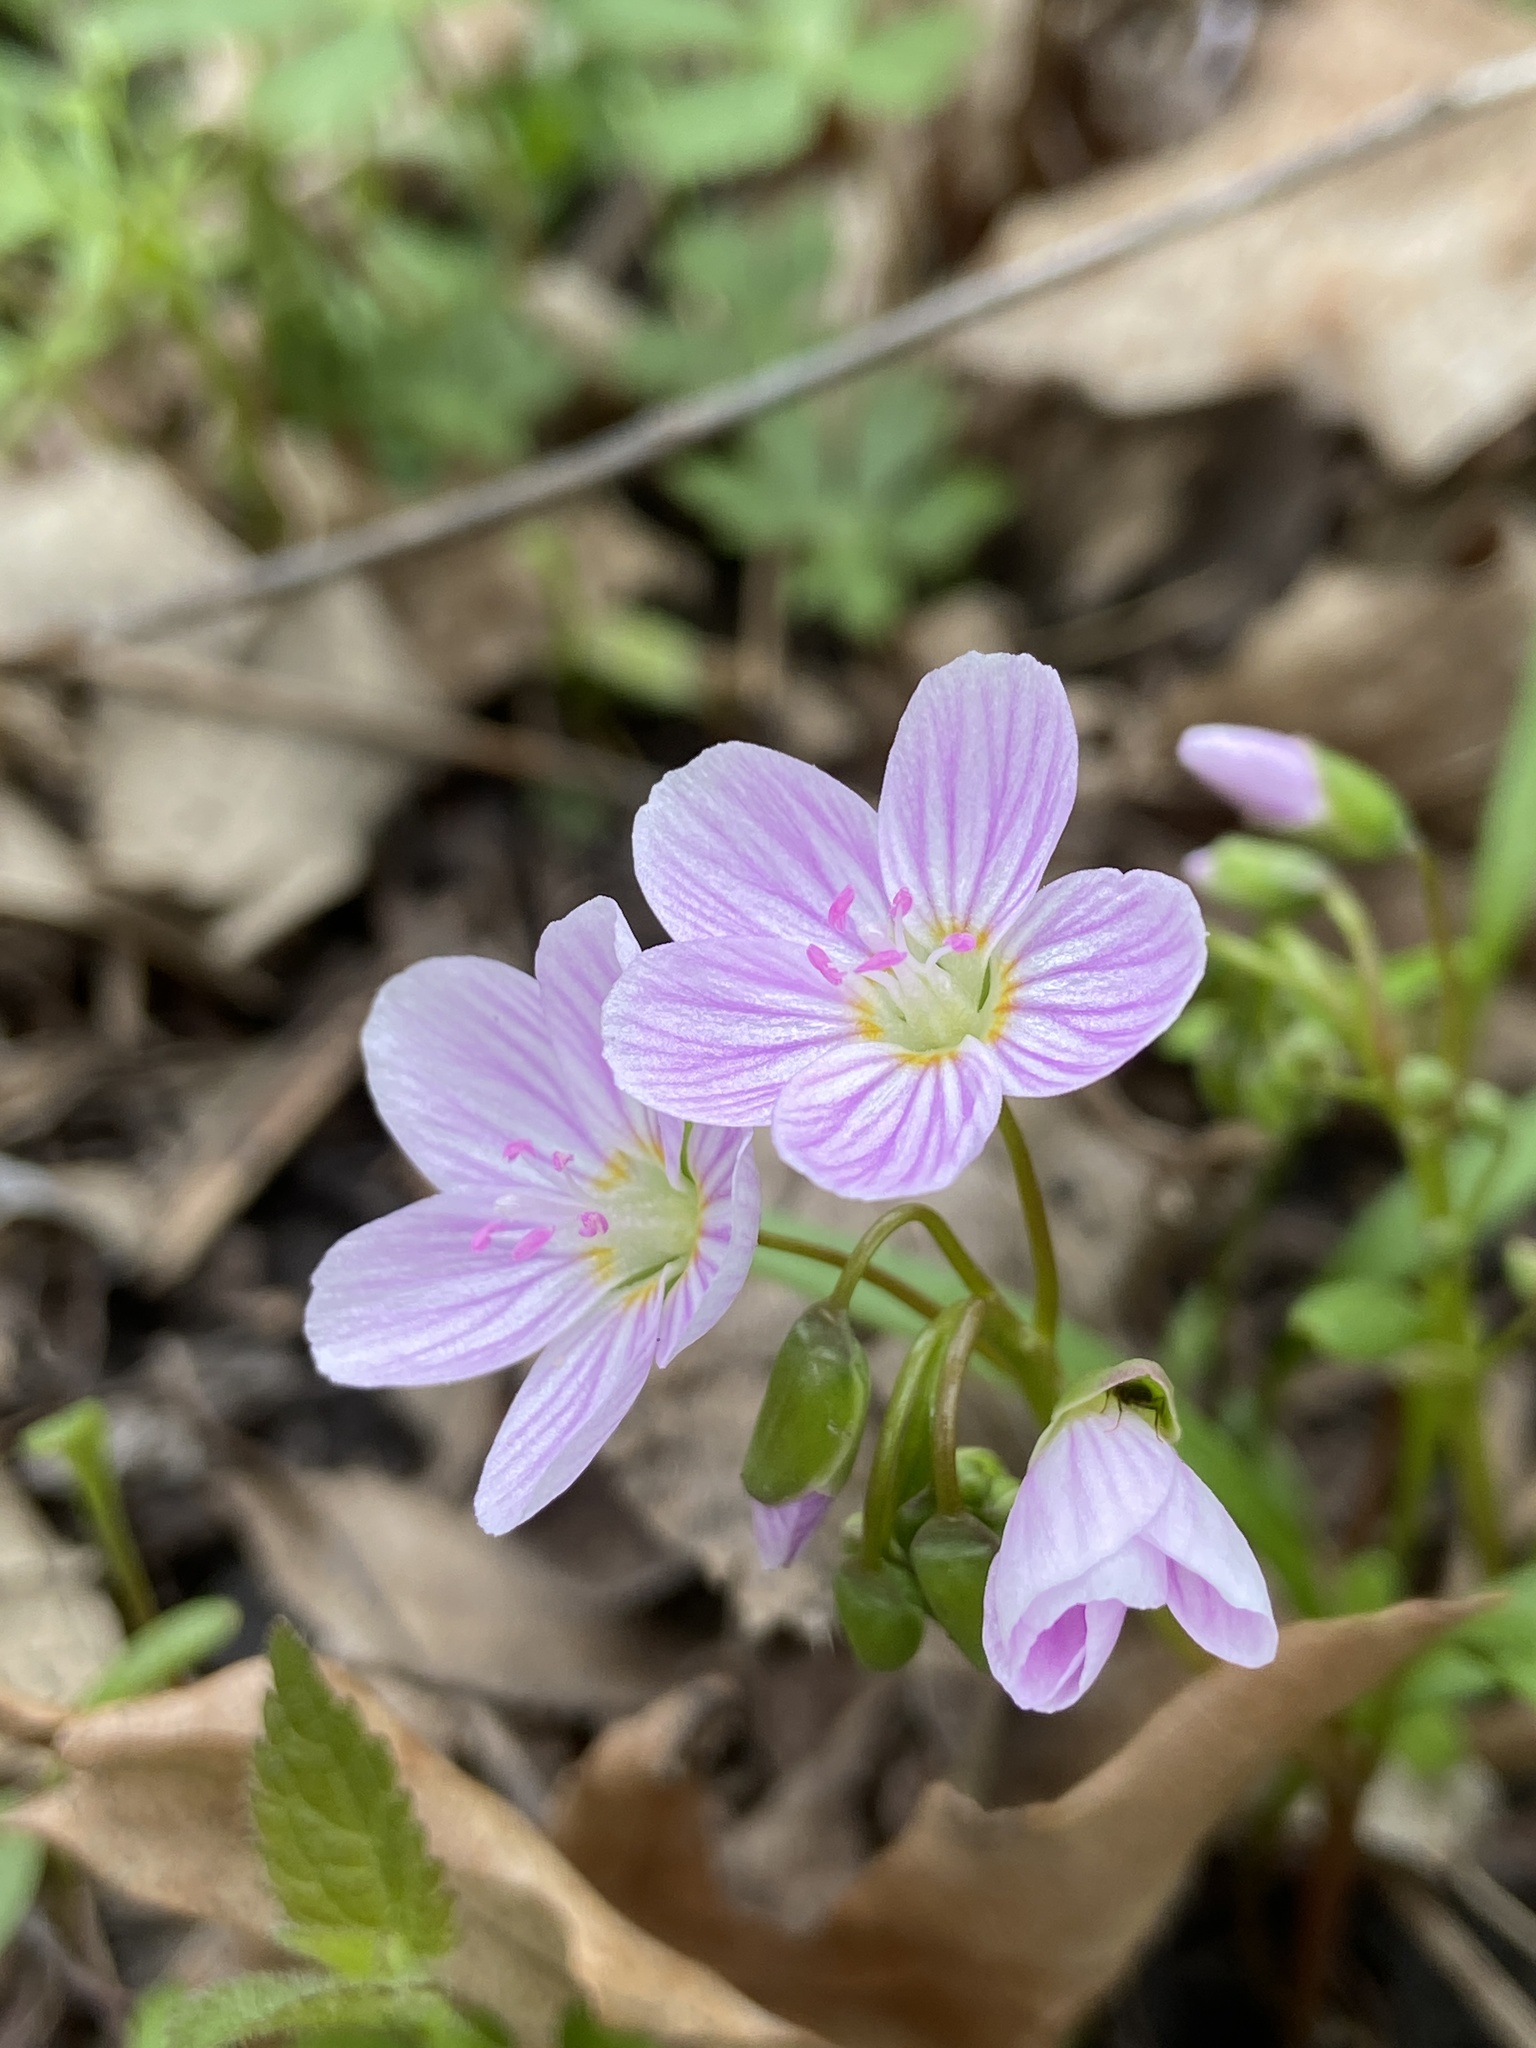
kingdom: Plantae
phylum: Tracheophyta
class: Magnoliopsida
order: Caryophyllales
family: Montiaceae
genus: Claytonia
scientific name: Claytonia virginica
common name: Virginia springbeauty
